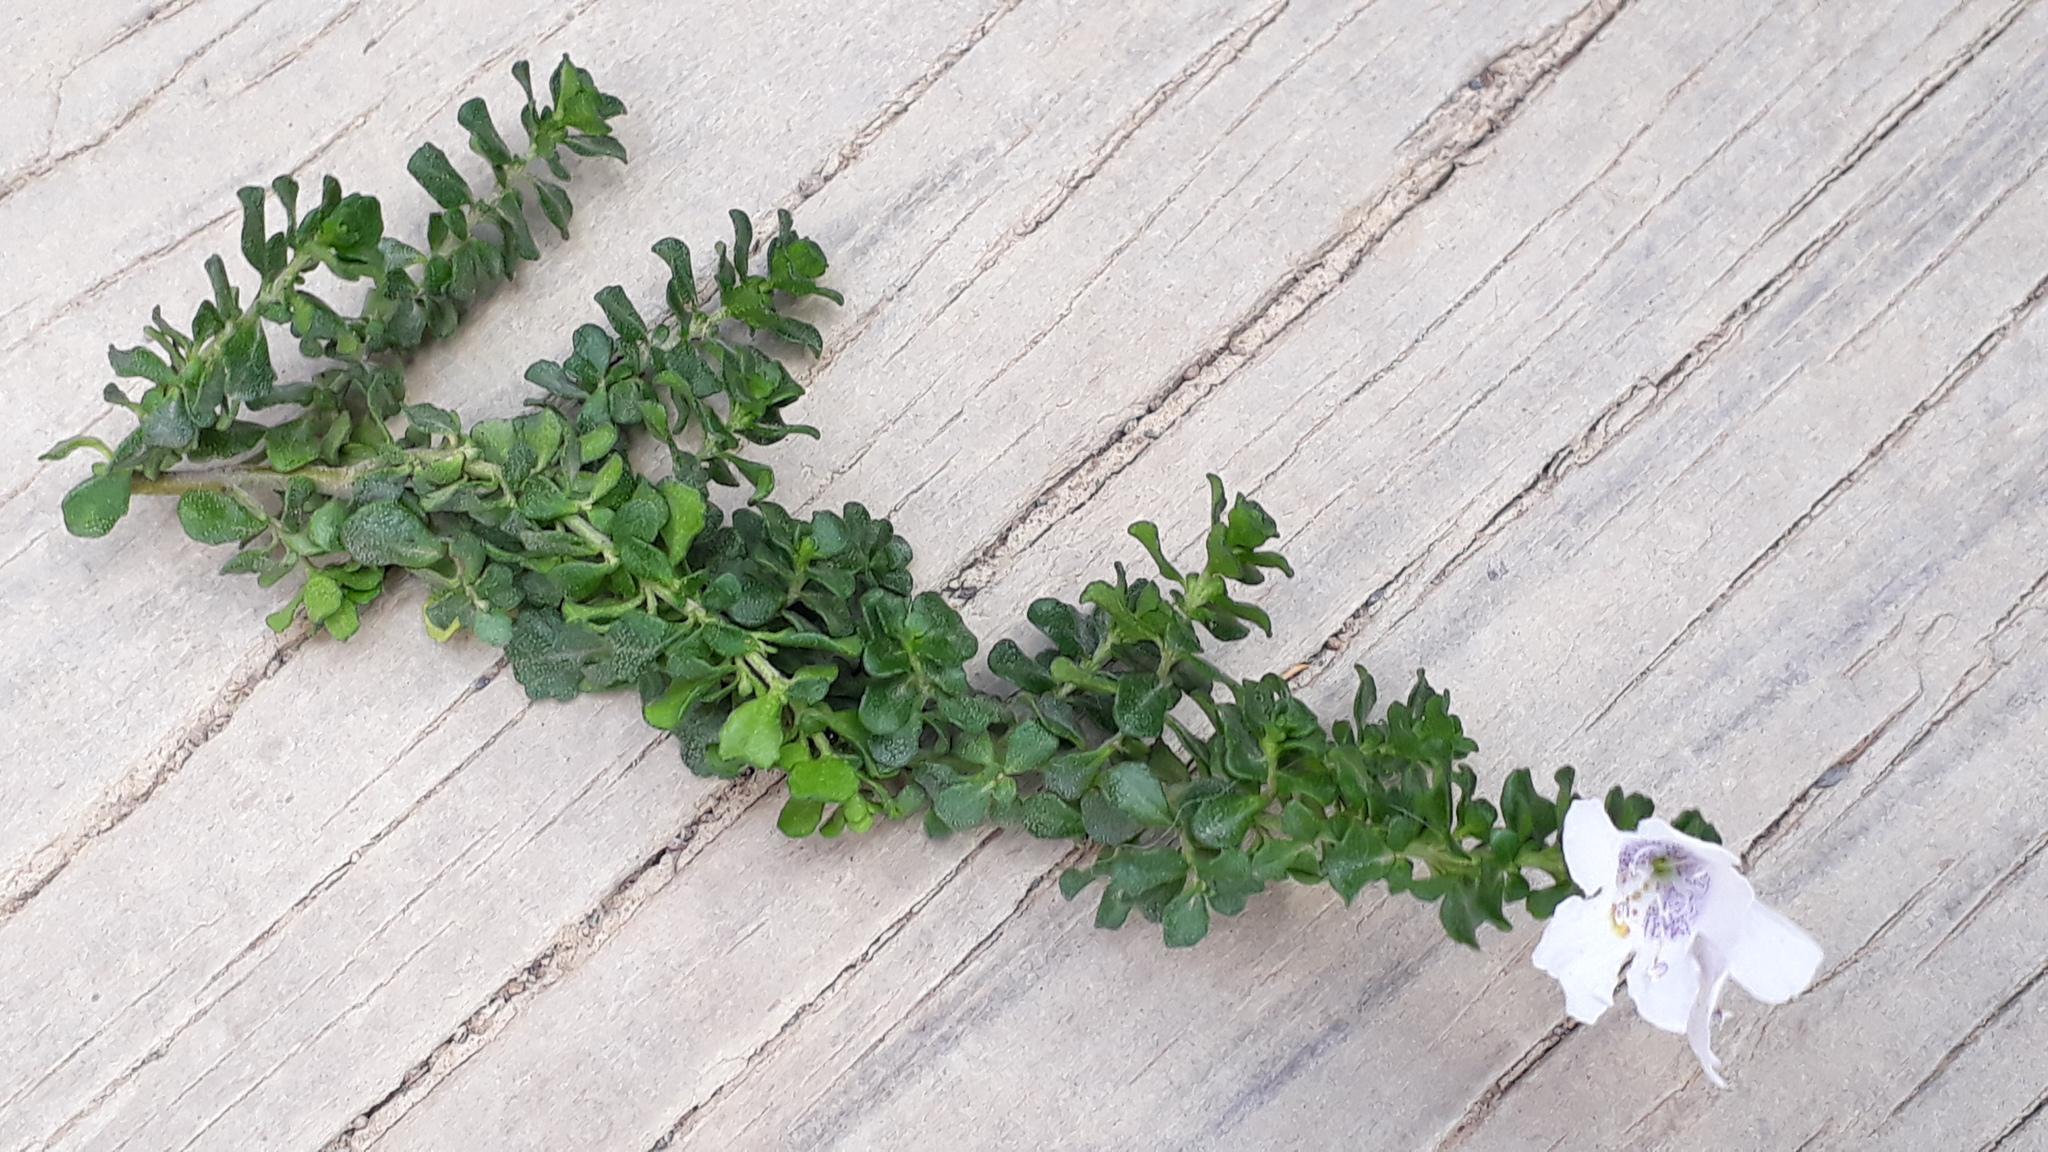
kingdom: Plantae
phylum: Tracheophyta
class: Magnoliopsida
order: Lamiales
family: Lamiaceae
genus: Prostanthera
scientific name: Prostanthera cuneata
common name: Alpine mintbush
